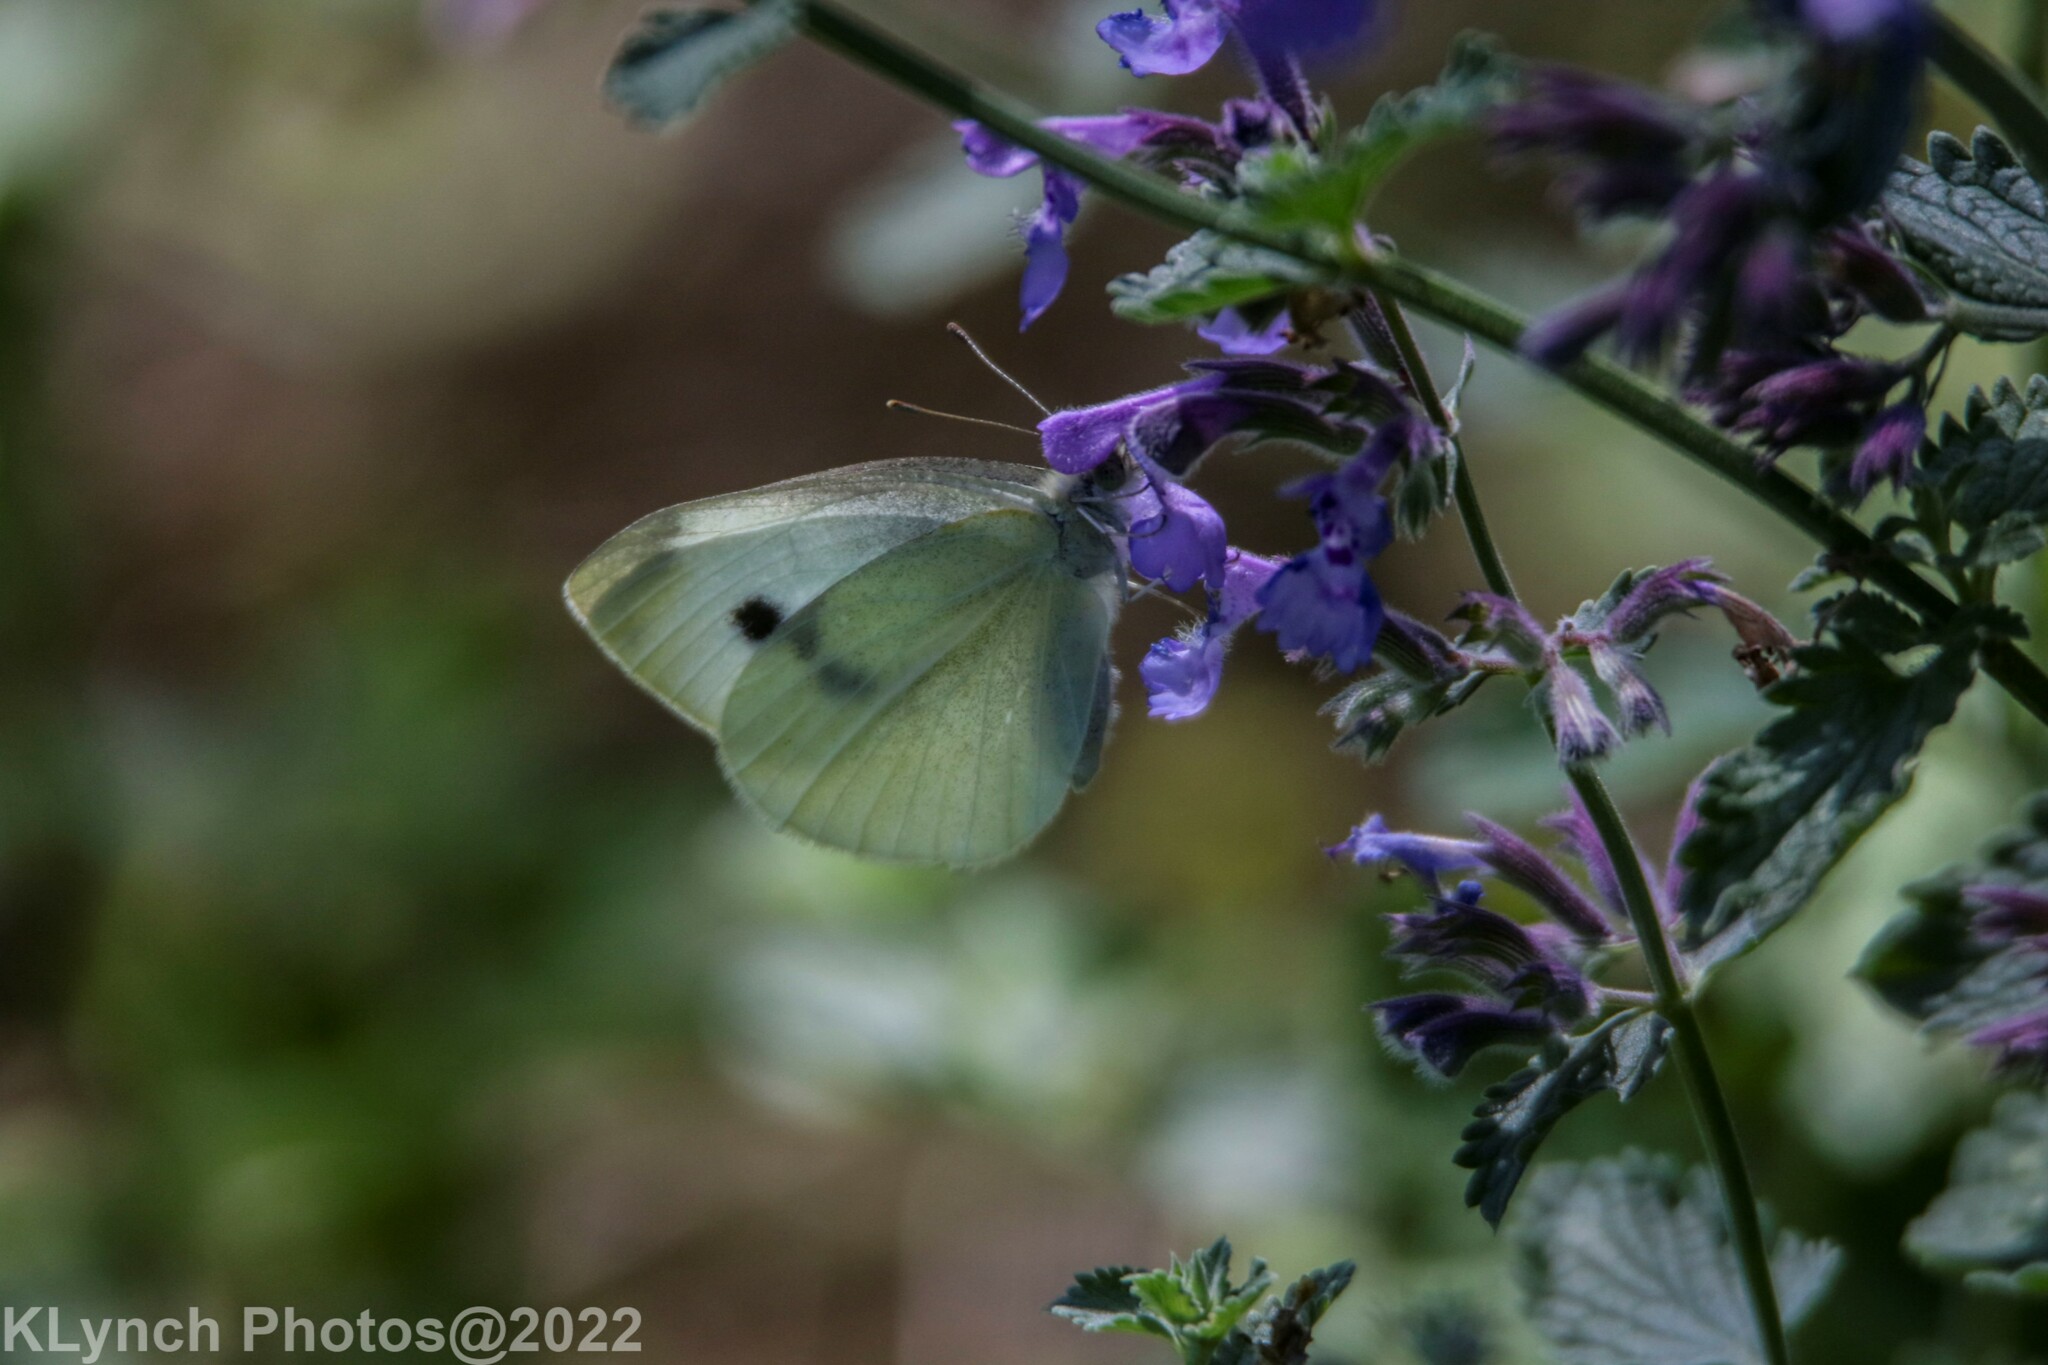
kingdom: Animalia
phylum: Arthropoda
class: Insecta
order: Lepidoptera
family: Pieridae
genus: Pieris
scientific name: Pieris rapae
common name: Small white
